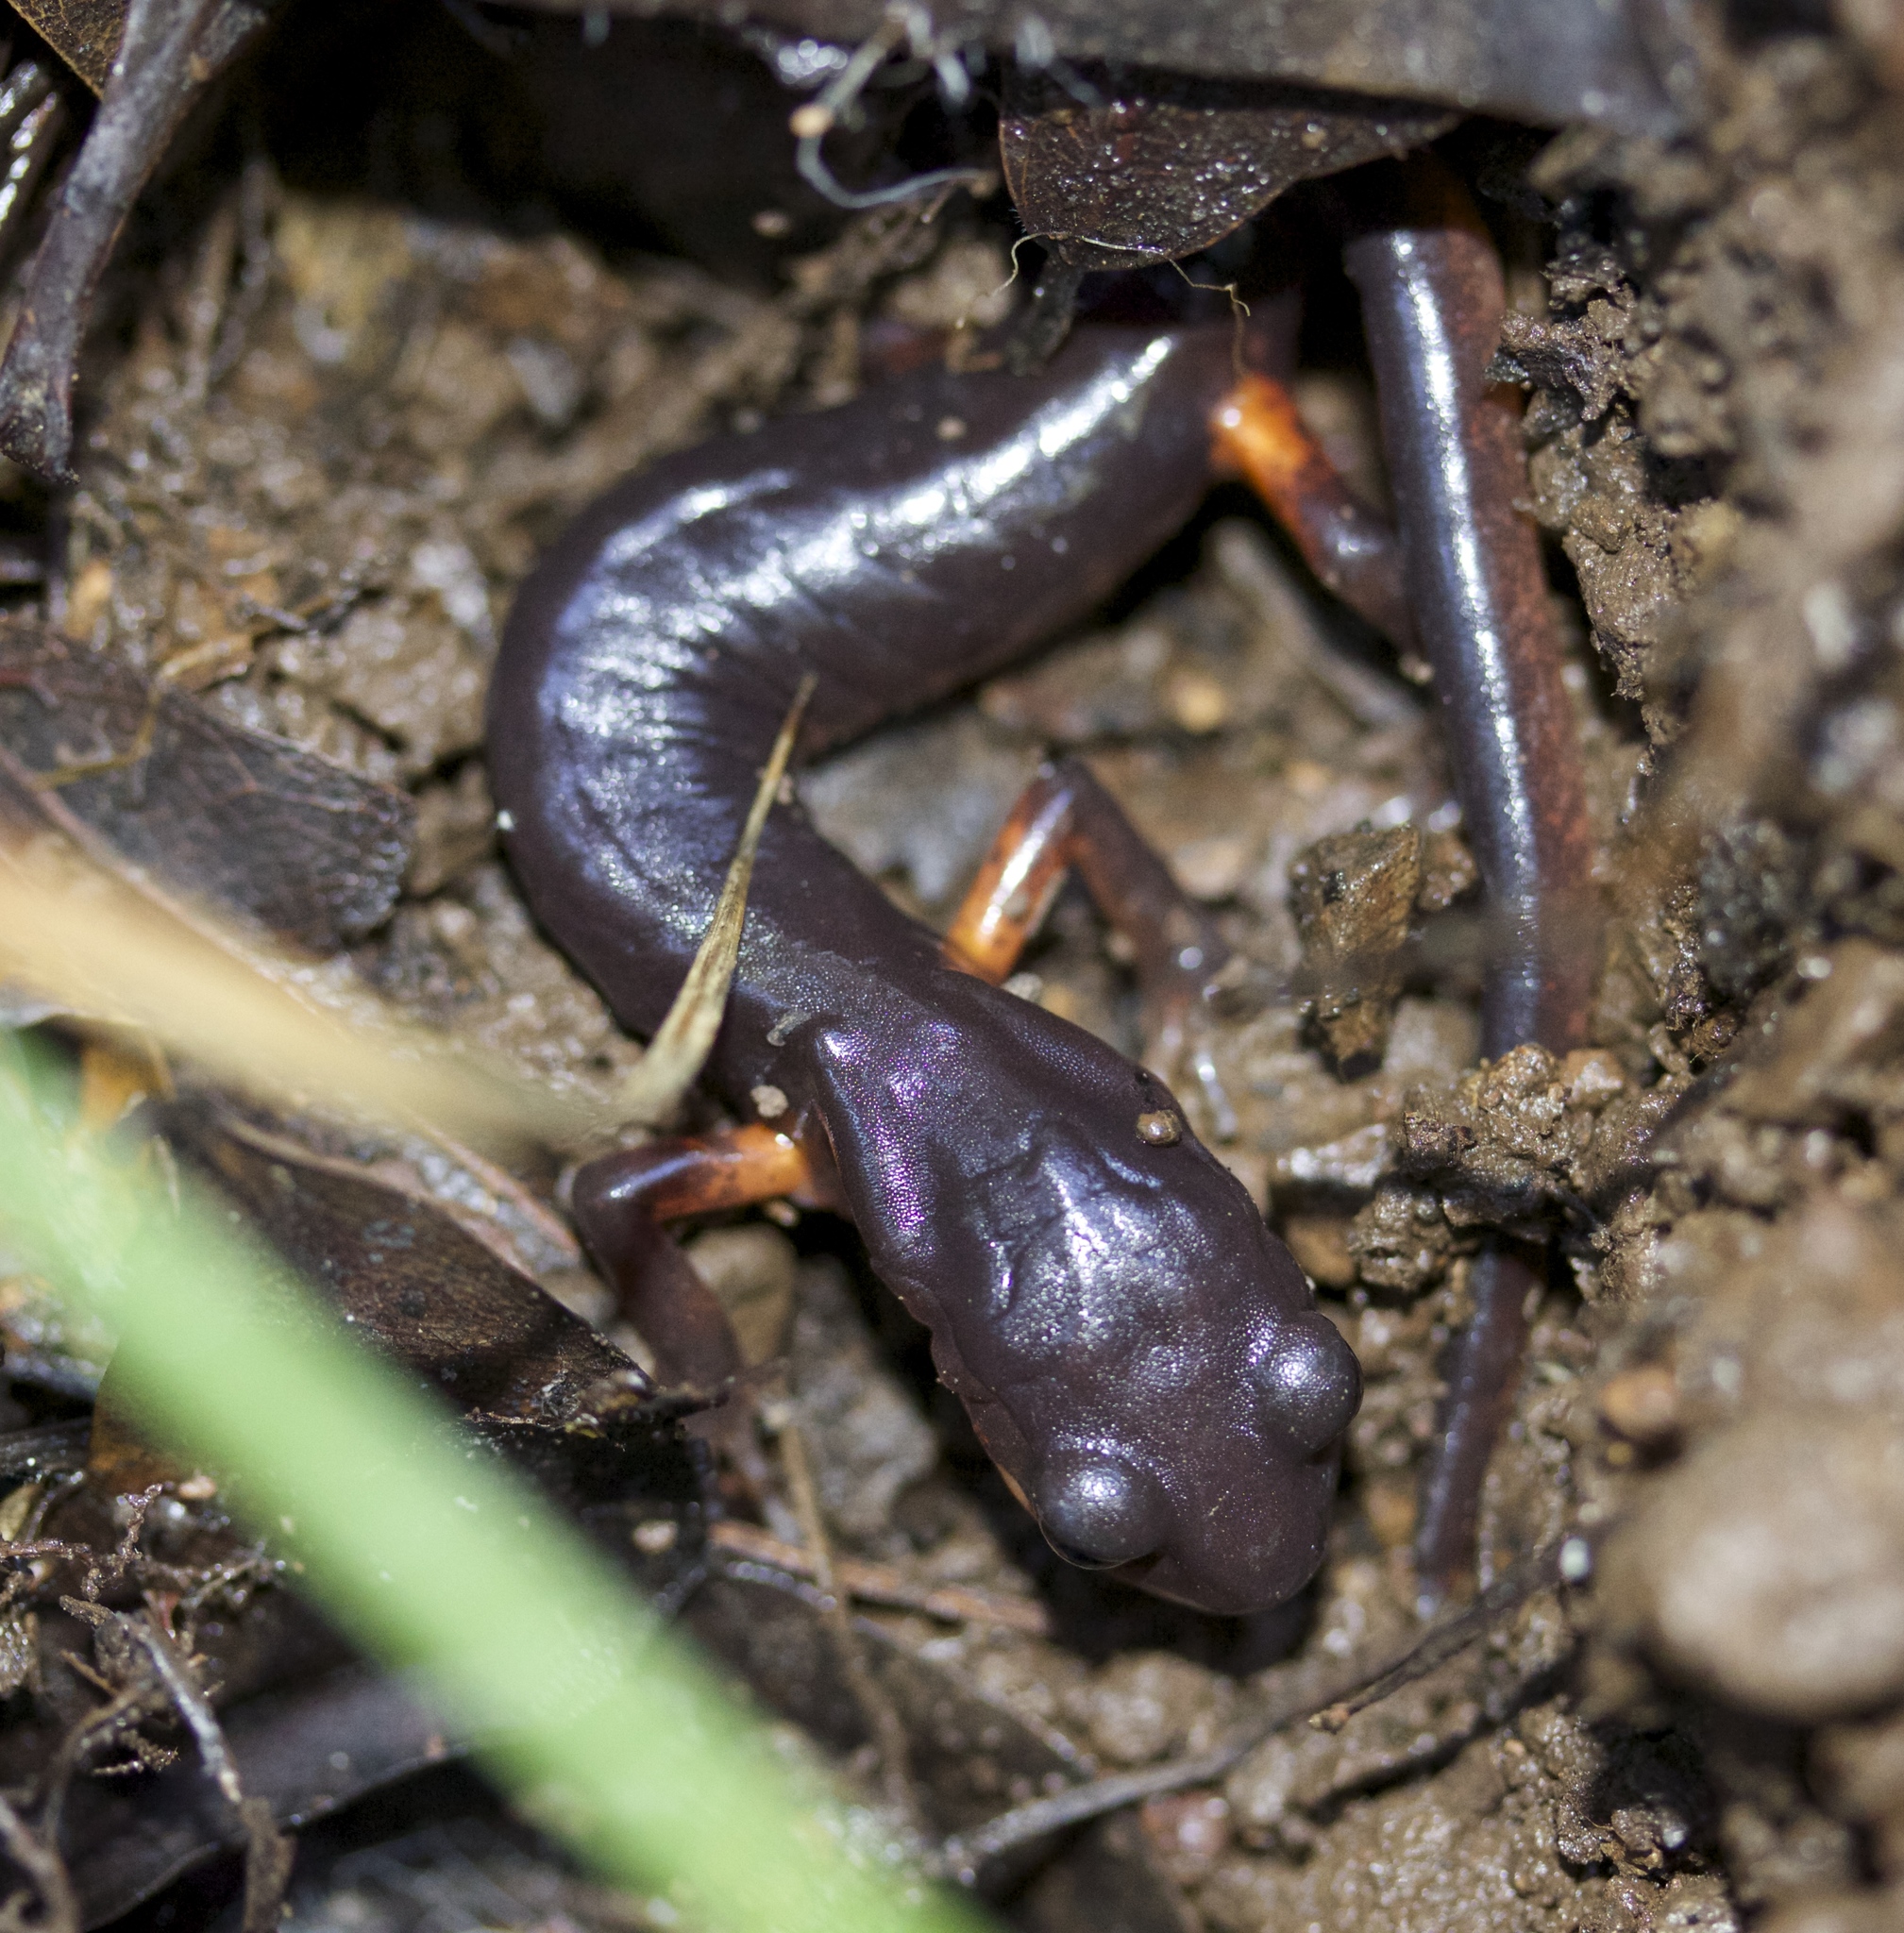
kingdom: Animalia
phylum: Chordata
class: Amphibia
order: Caudata
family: Plethodontidae
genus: Ensatina
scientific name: Ensatina eschscholtzii
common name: Ensatina
